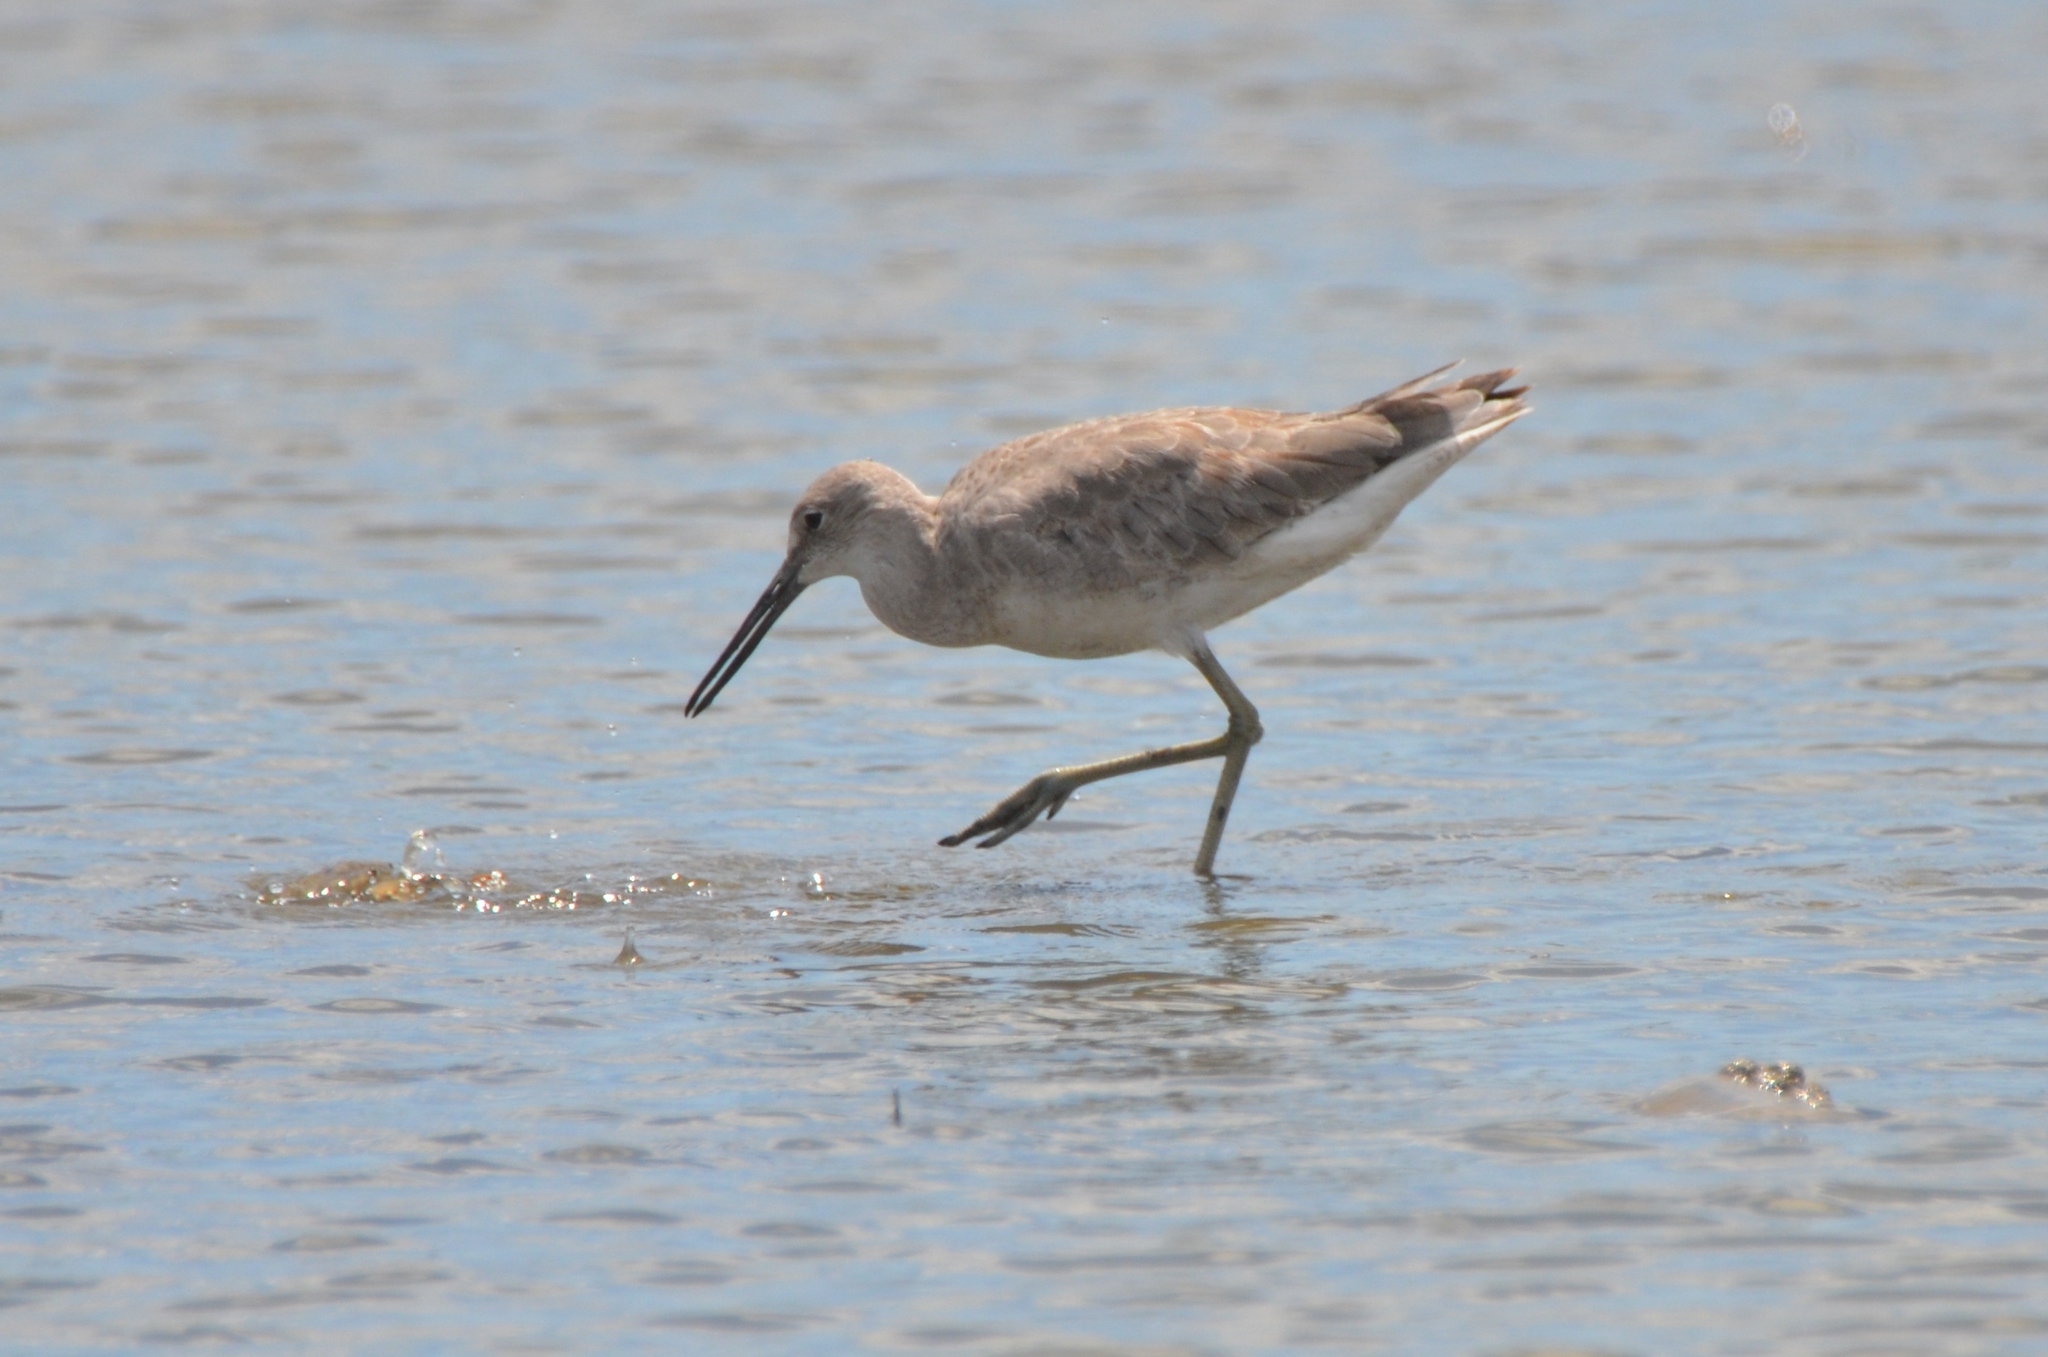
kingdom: Animalia
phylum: Chordata
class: Aves
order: Charadriiformes
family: Scolopacidae
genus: Tringa
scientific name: Tringa semipalmata
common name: Willet
